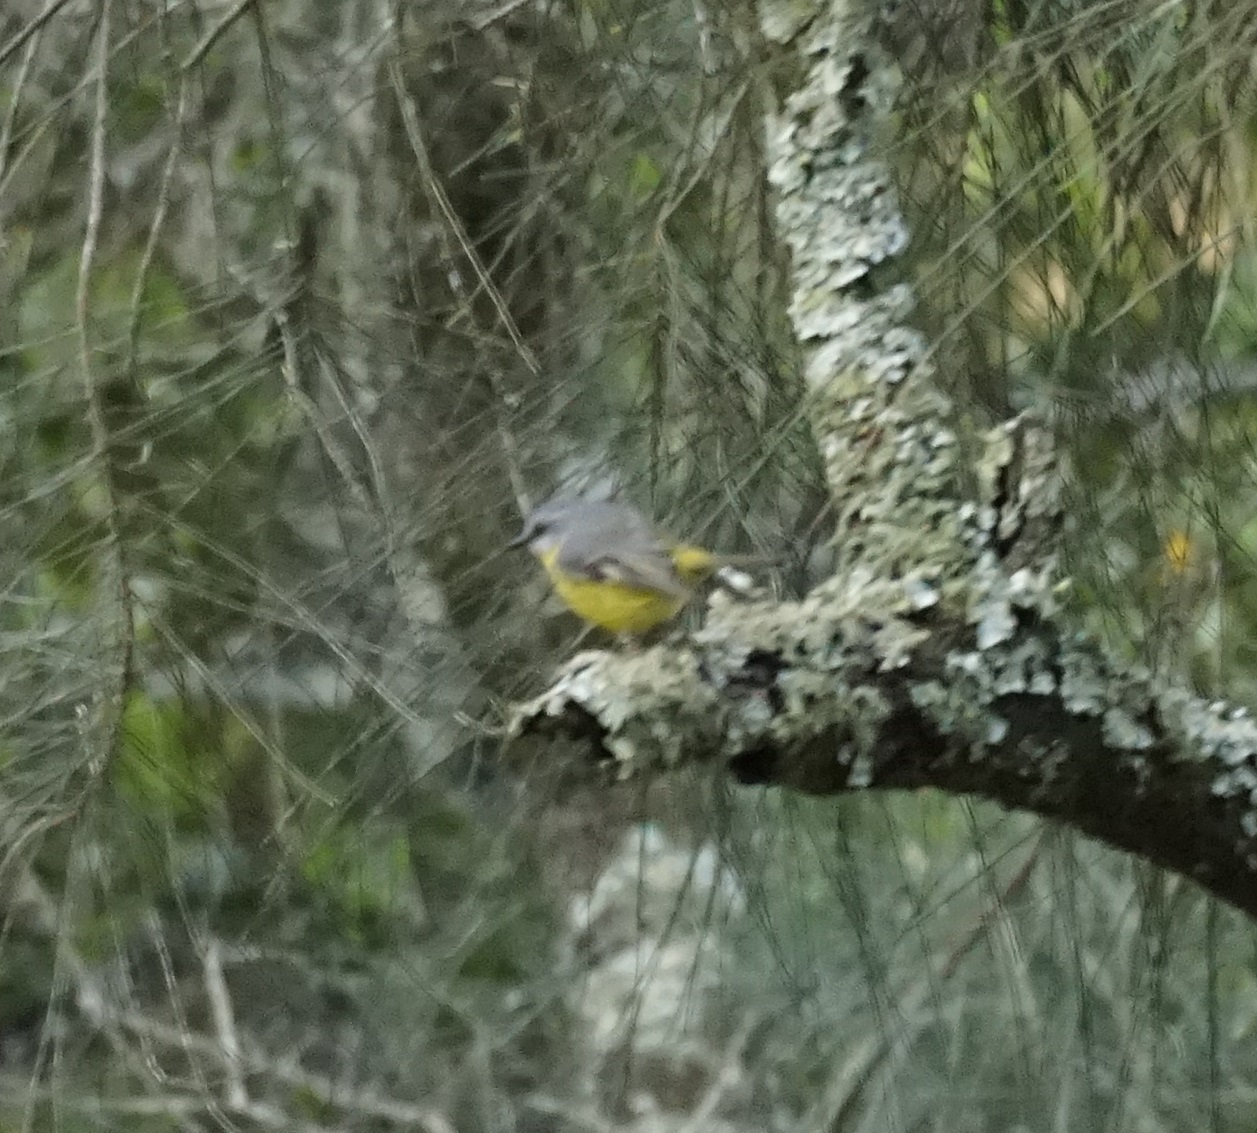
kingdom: Animalia
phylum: Chordata
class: Aves
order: Passeriformes
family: Petroicidae
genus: Eopsaltria
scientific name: Eopsaltria australis
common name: Eastern yellow robin
